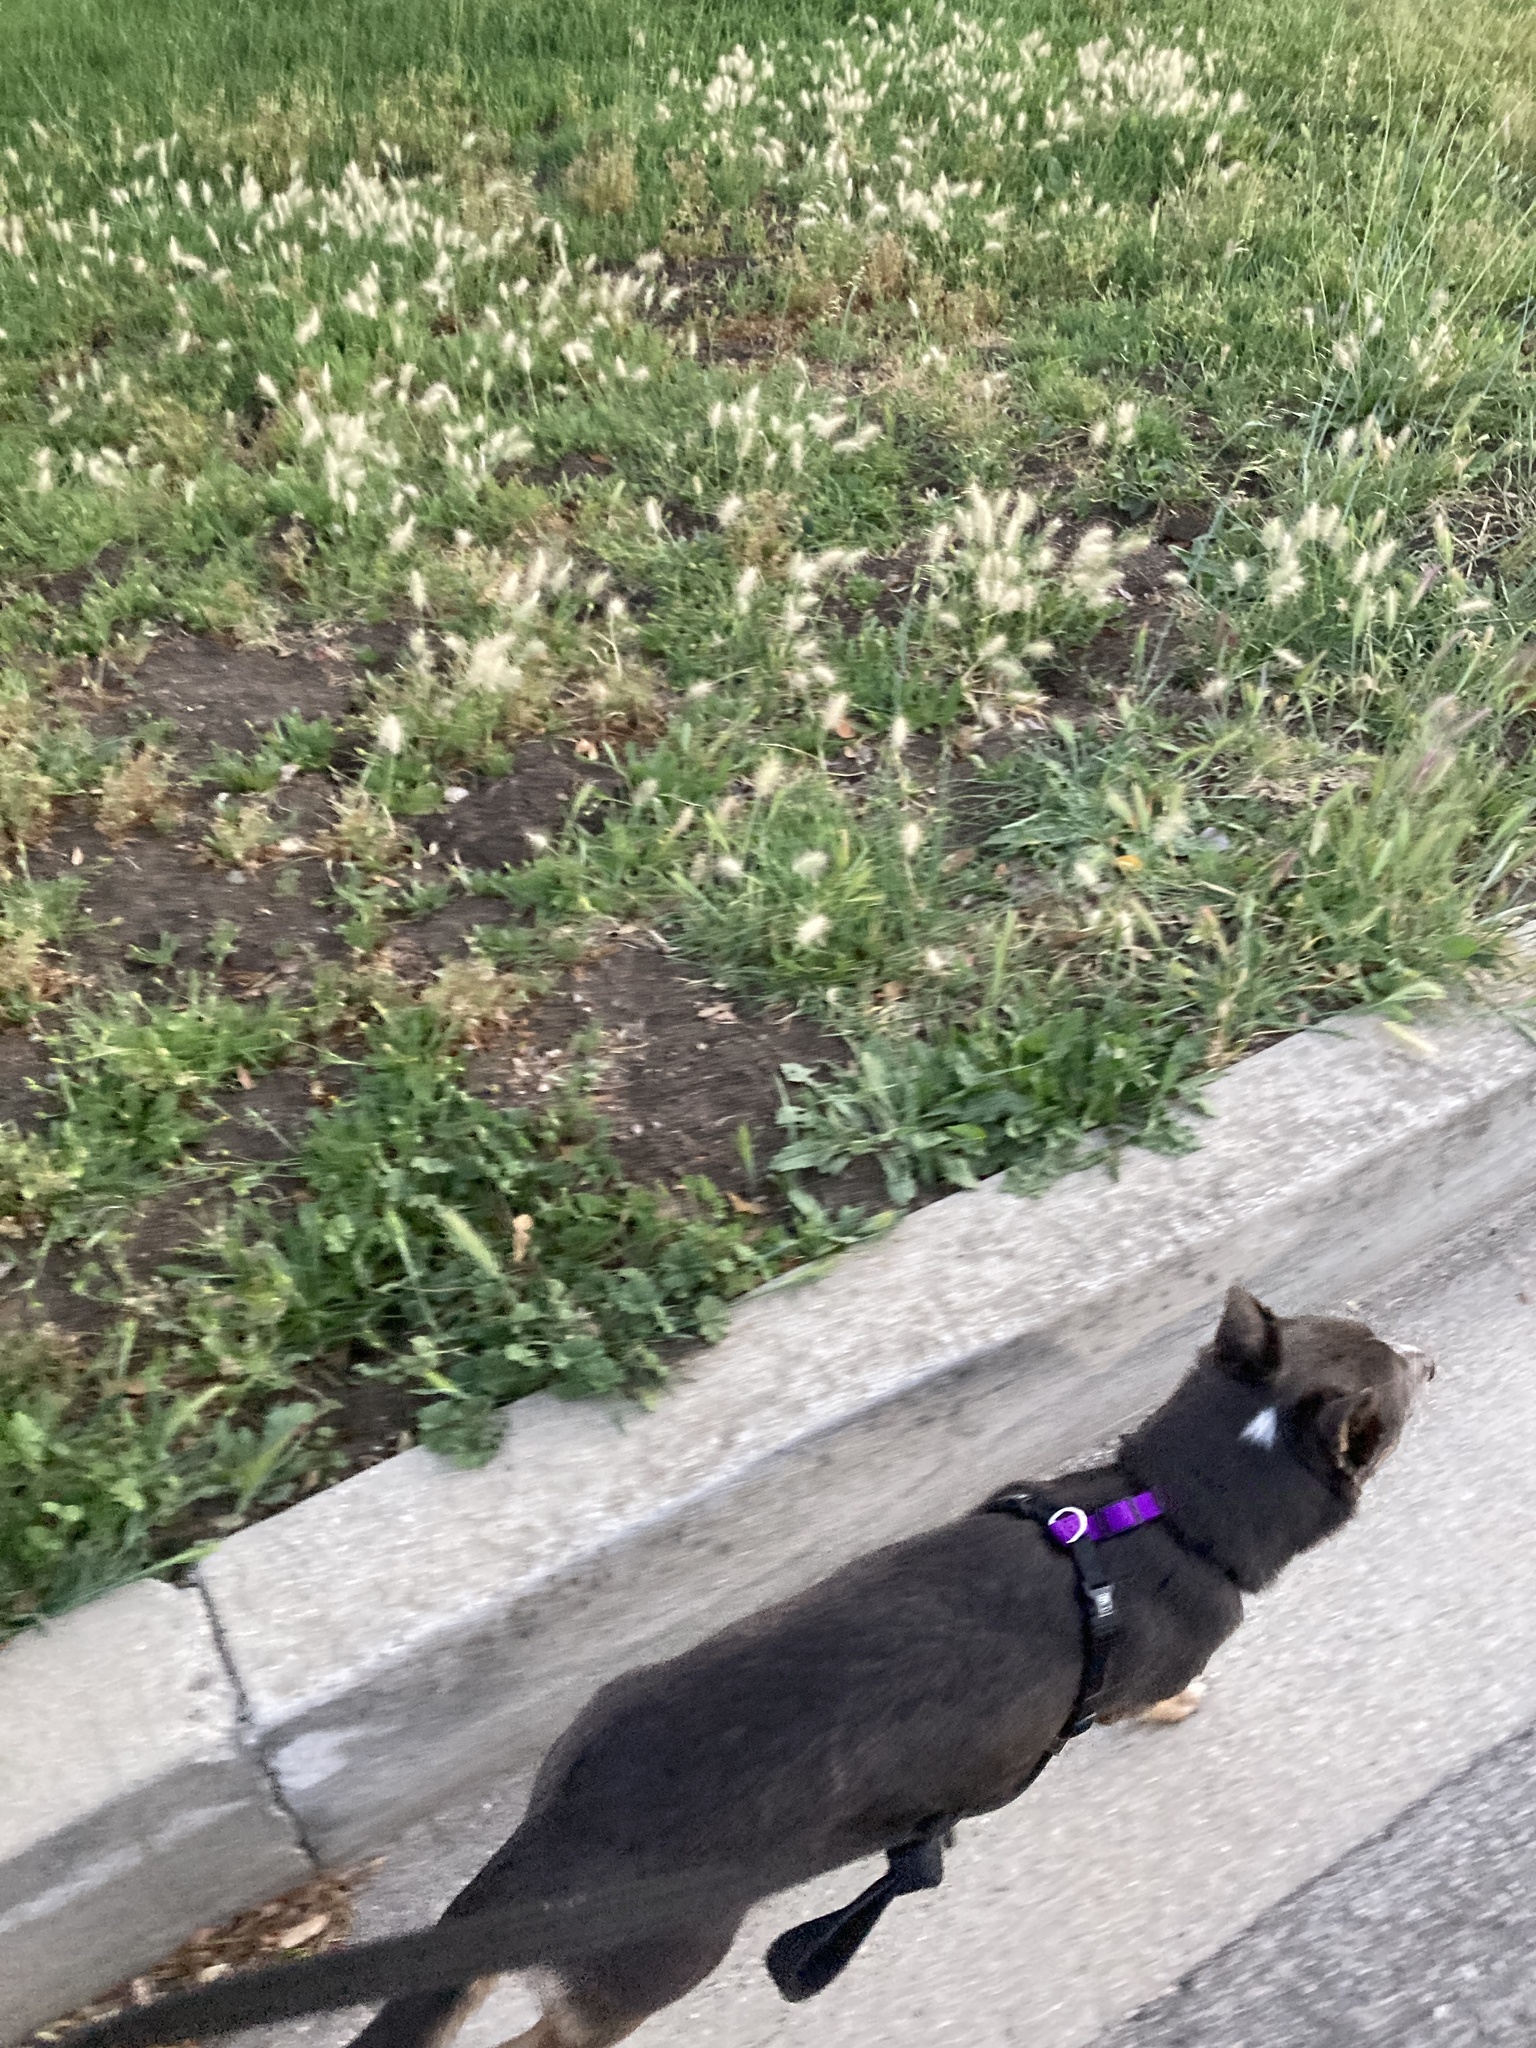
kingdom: Plantae
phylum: Tracheophyta
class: Liliopsida
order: Poales
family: Poaceae
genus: Cenchrus
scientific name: Cenchrus longisetus
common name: Feathertop
